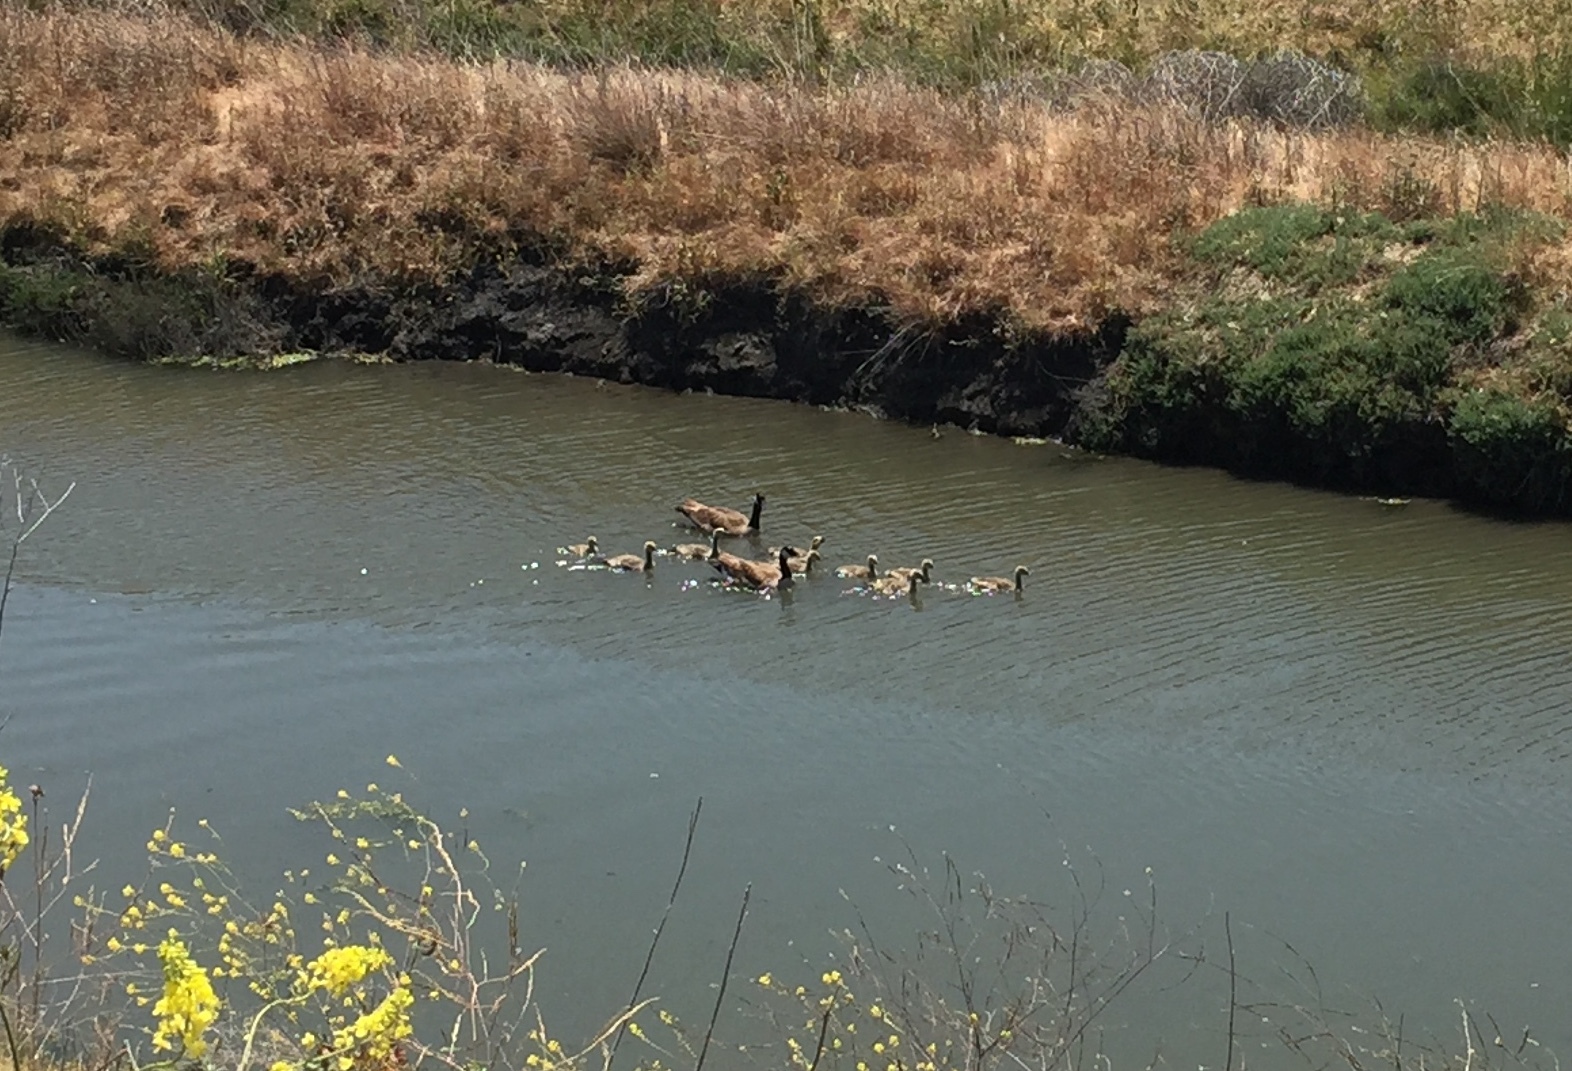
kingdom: Animalia
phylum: Chordata
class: Aves
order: Anseriformes
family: Anatidae
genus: Branta
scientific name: Branta canadensis
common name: Canada goose
